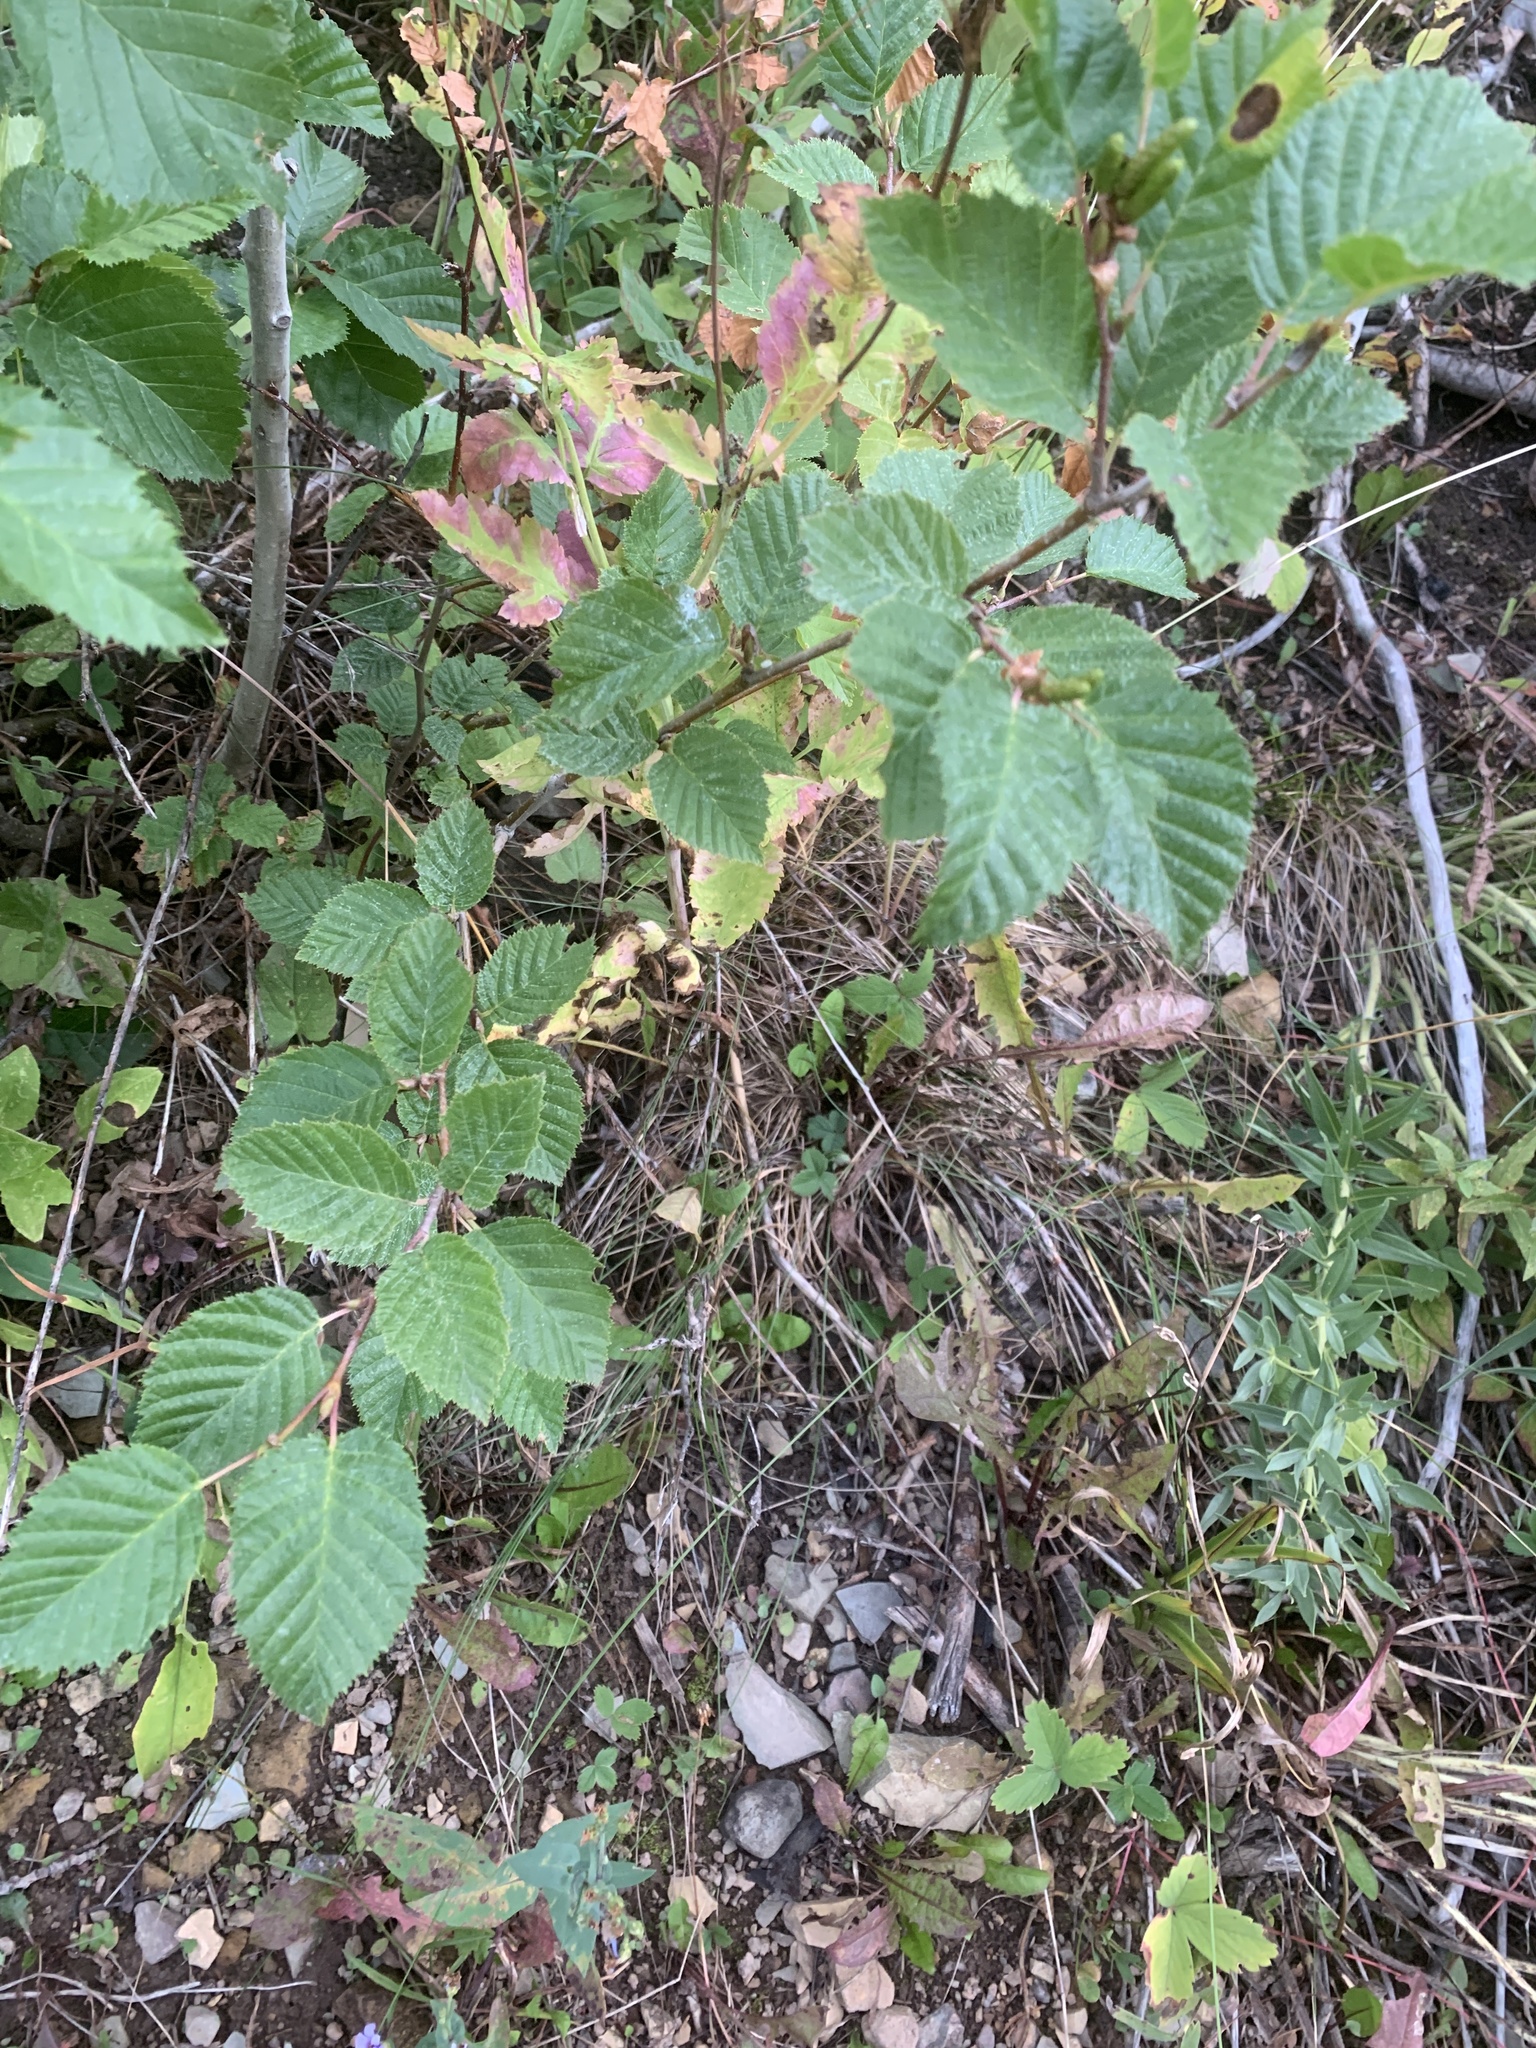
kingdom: Plantae
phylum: Tracheophyta
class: Magnoliopsida
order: Fagales
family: Betulaceae
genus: Alnus
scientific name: Alnus alnobetula
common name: Green alder
